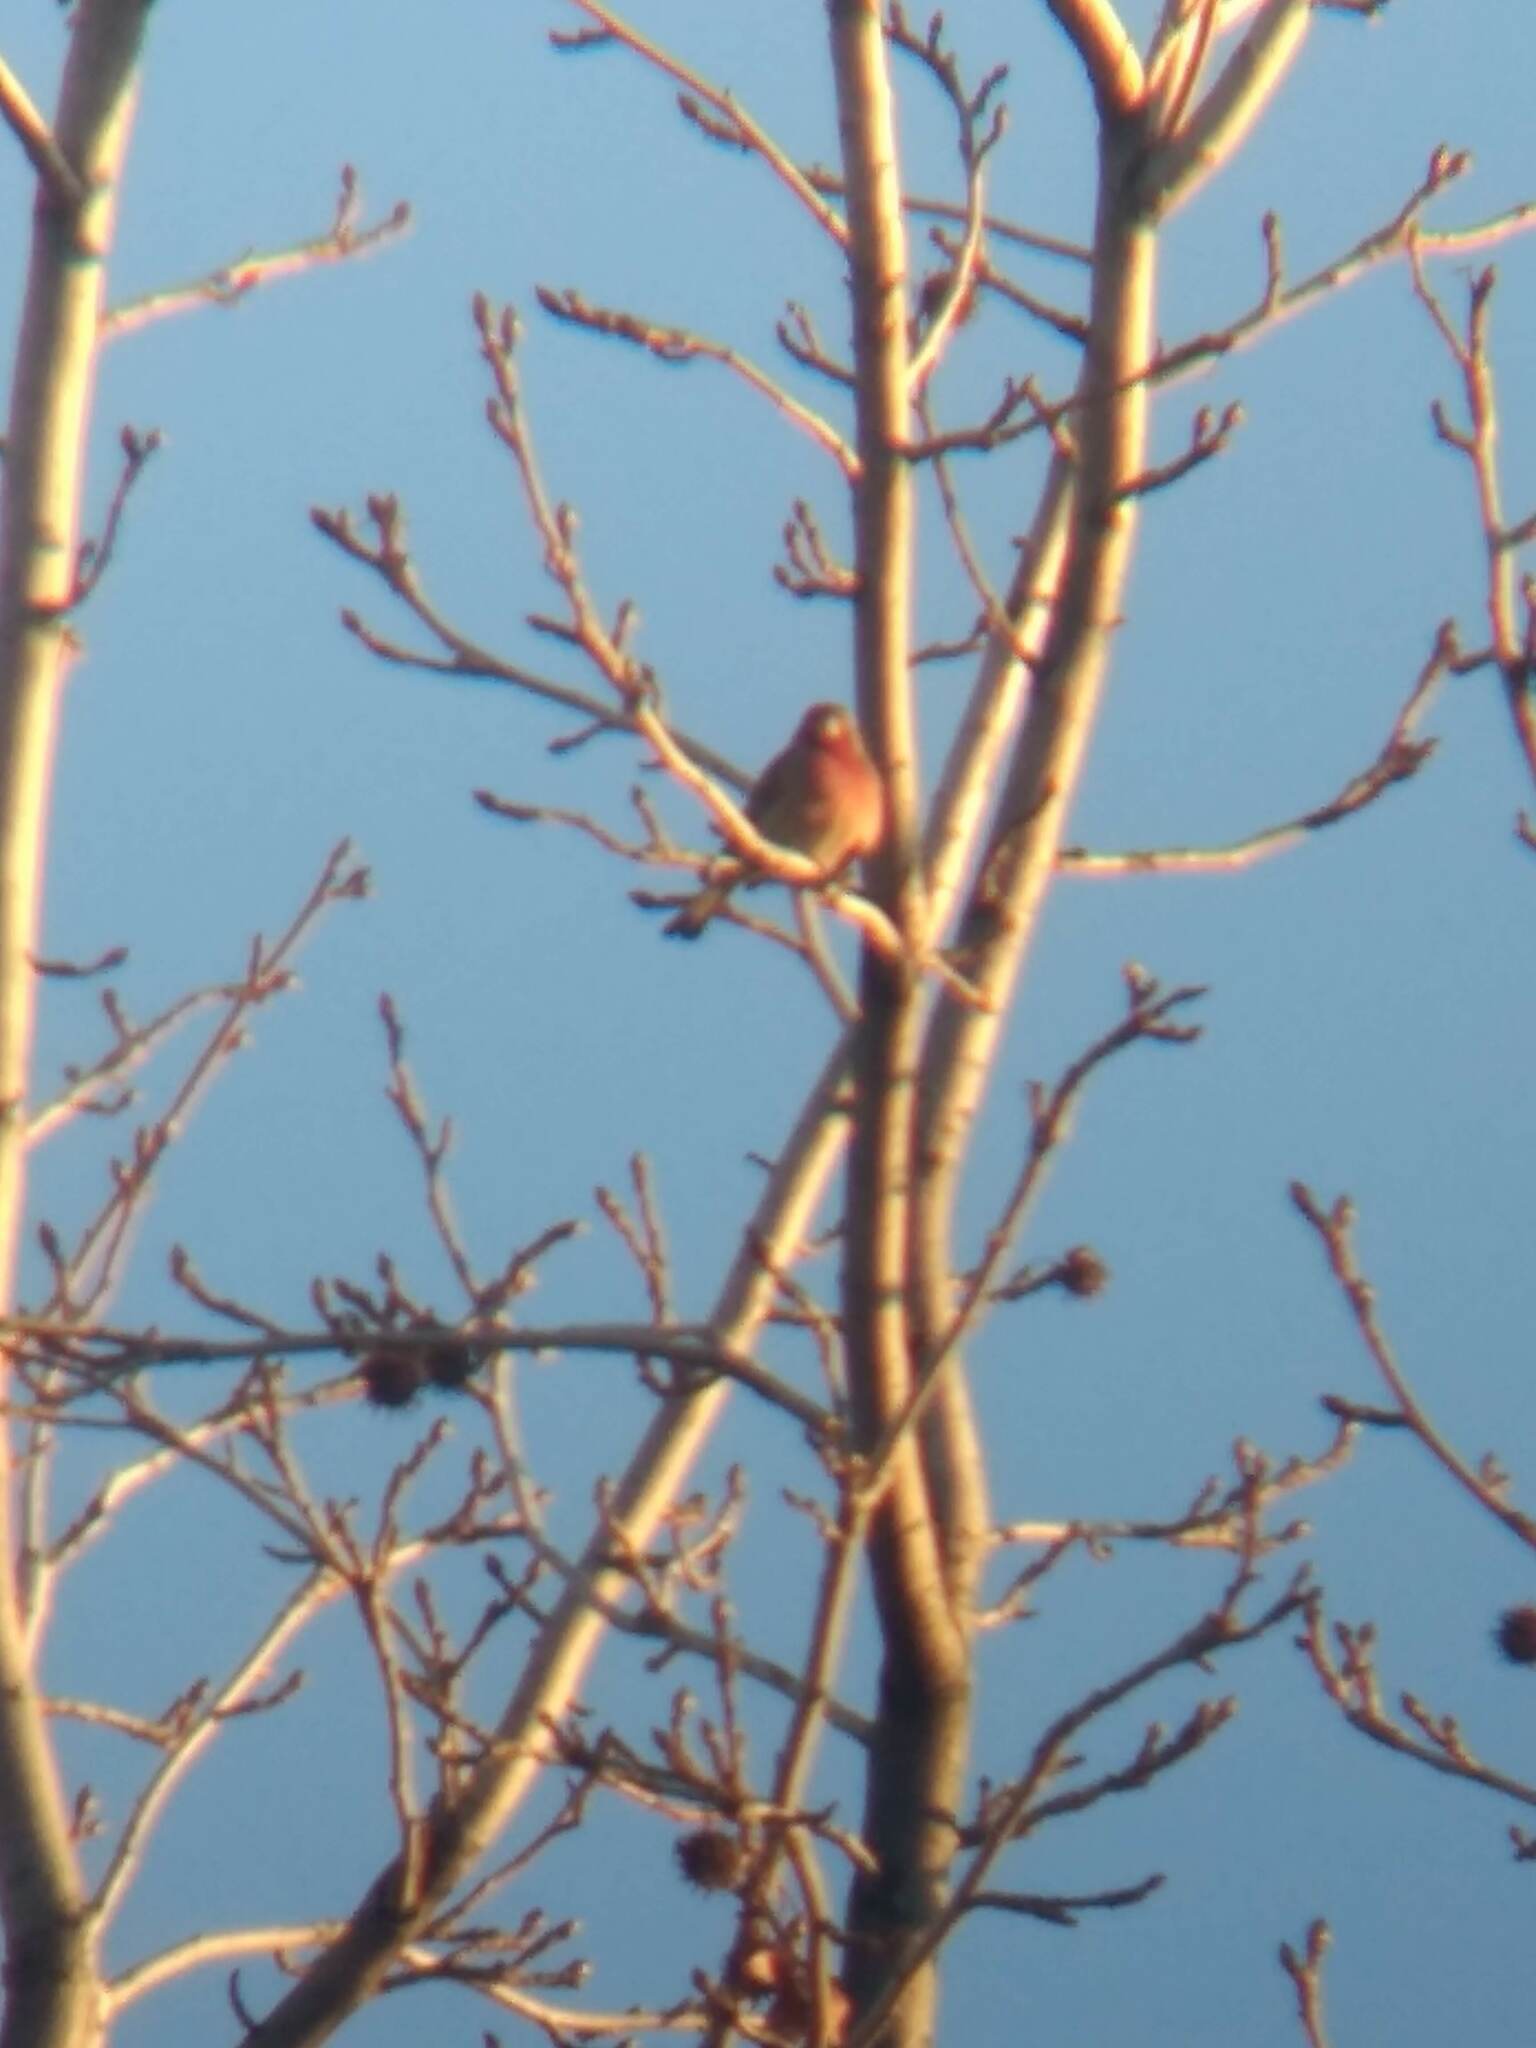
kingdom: Animalia
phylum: Chordata
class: Aves
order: Passeriformes
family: Fringillidae
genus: Haemorhous
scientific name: Haemorhous mexicanus
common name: House finch
